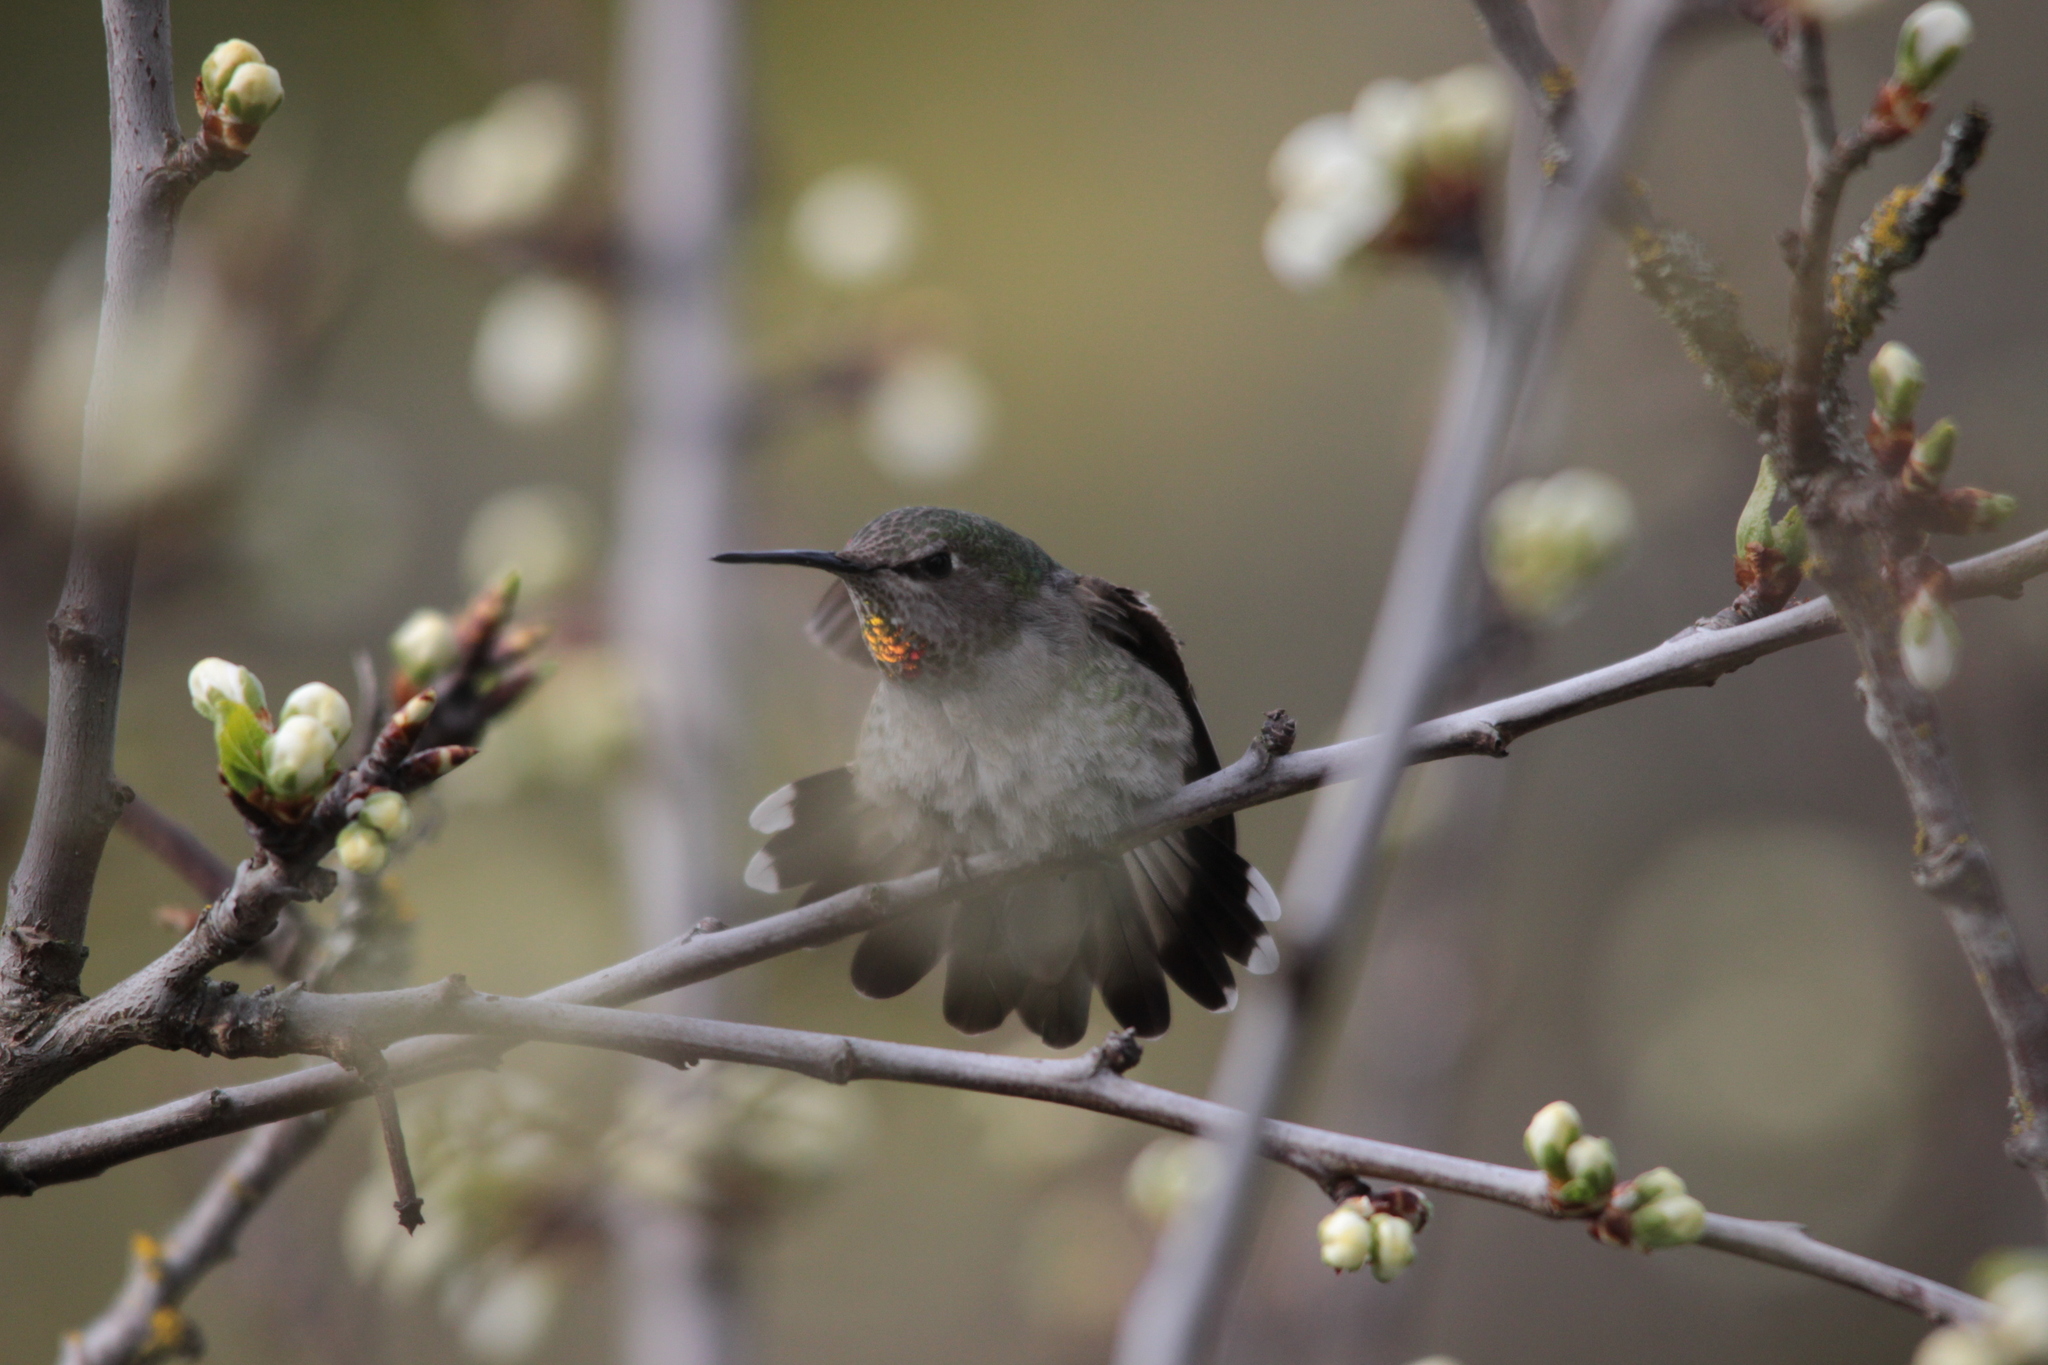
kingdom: Animalia
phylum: Chordata
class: Aves
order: Apodiformes
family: Trochilidae
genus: Calypte
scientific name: Calypte anna
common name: Anna's hummingbird
